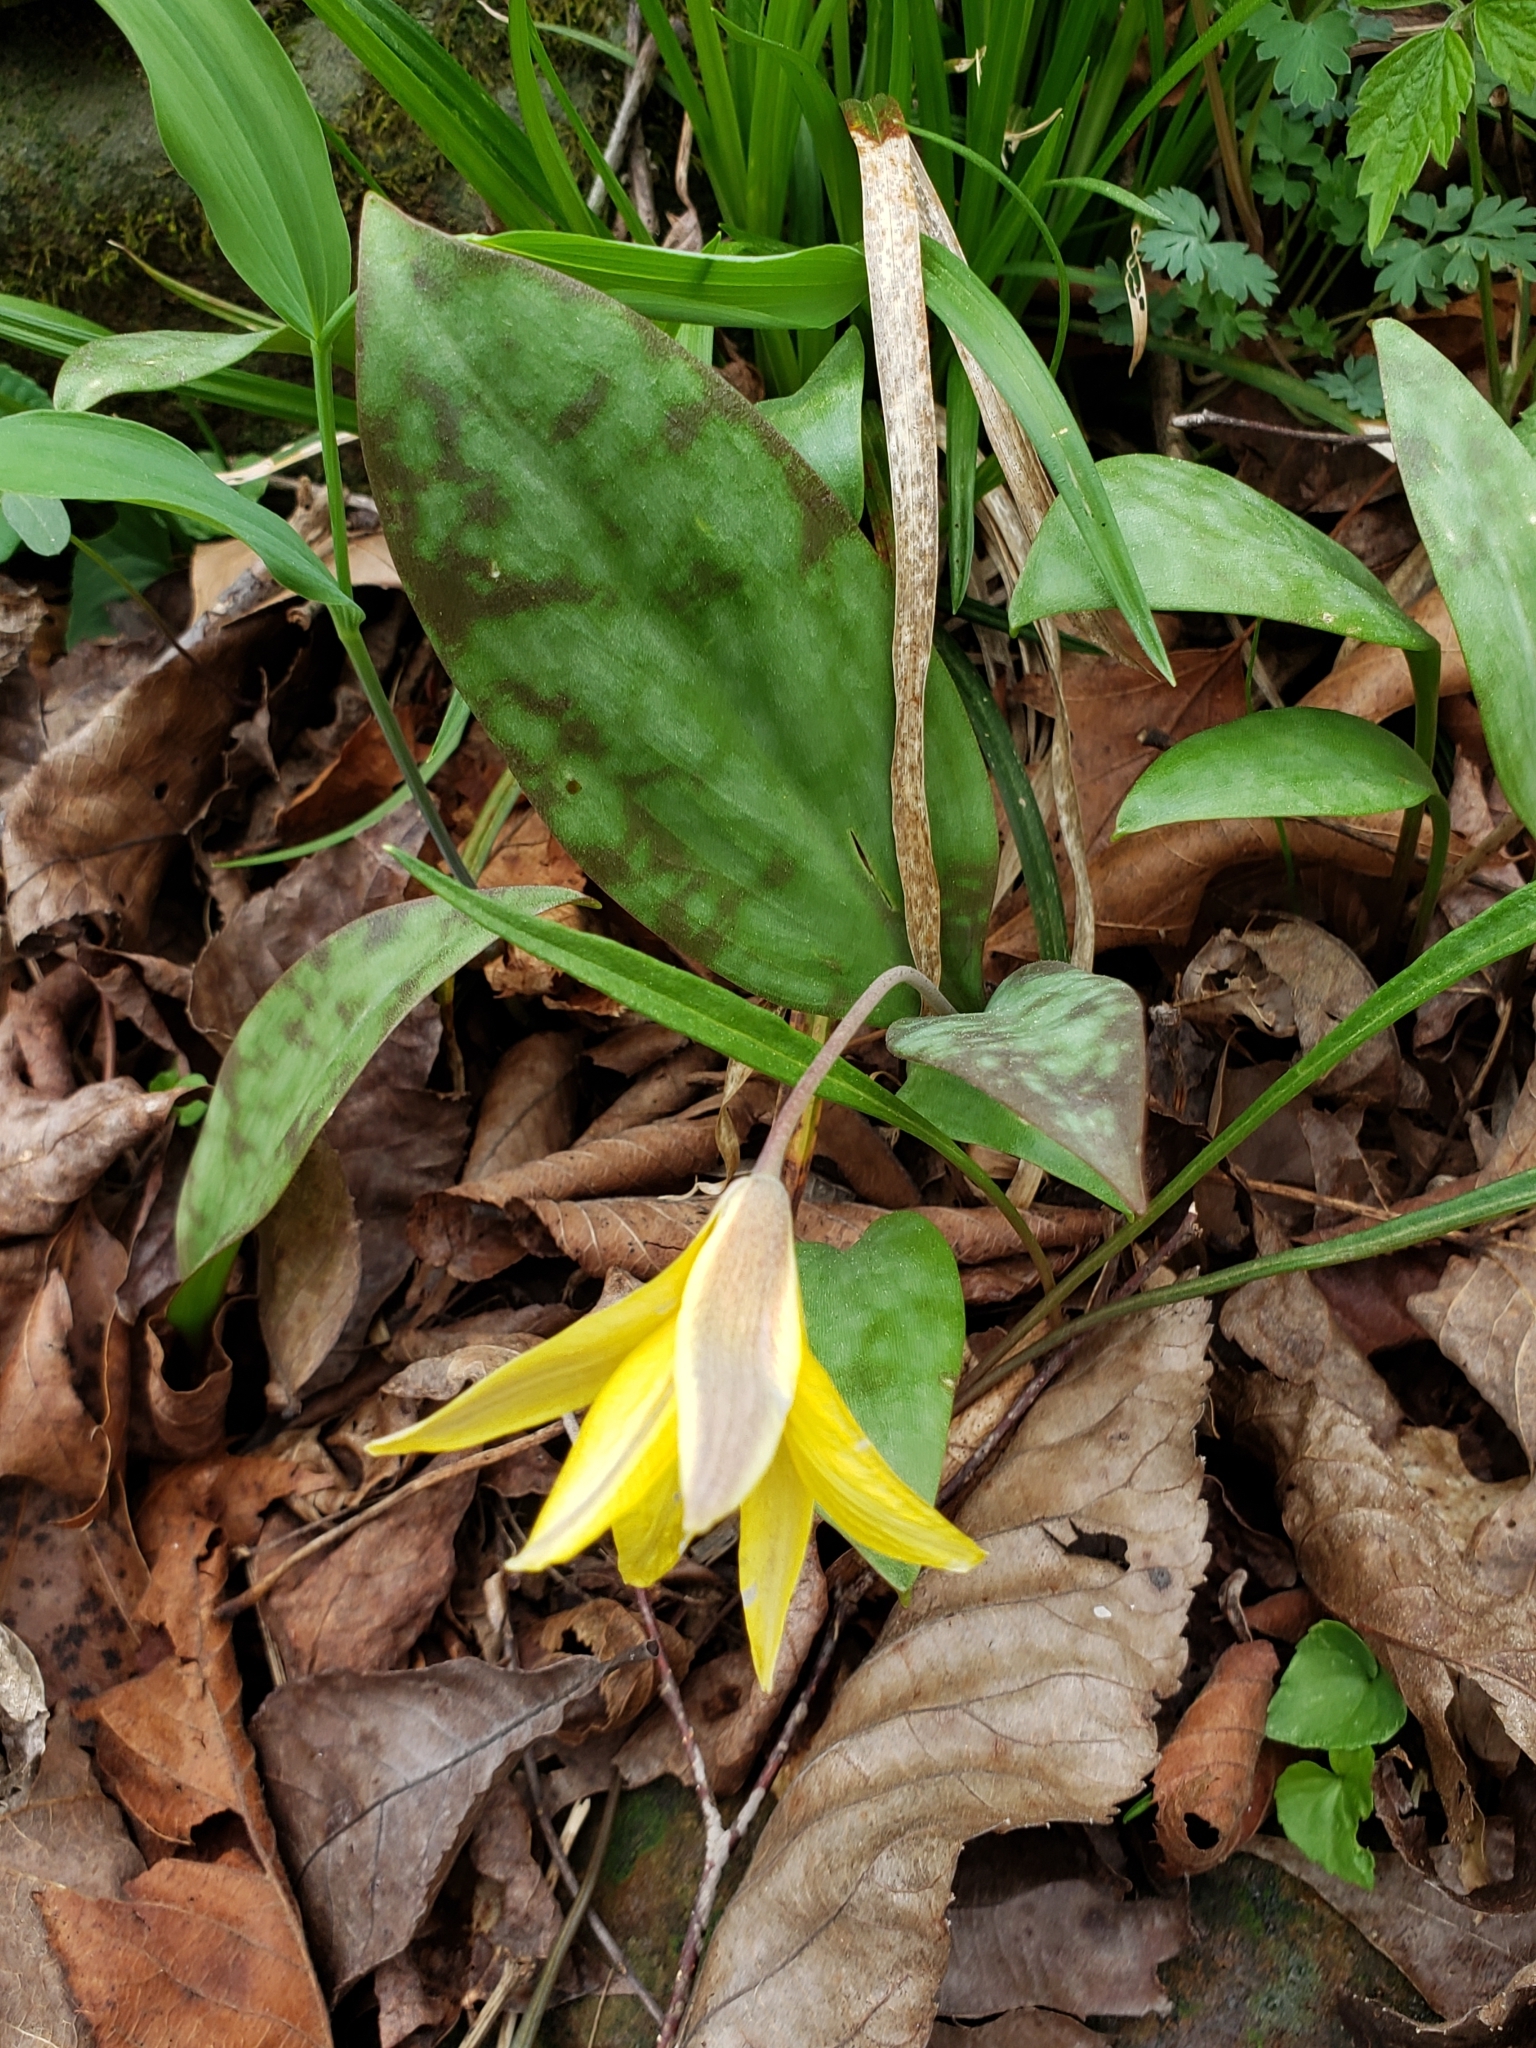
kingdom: Plantae
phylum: Tracheophyta
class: Liliopsida
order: Liliales
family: Liliaceae
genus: Erythronium
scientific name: Erythronium rostratum
